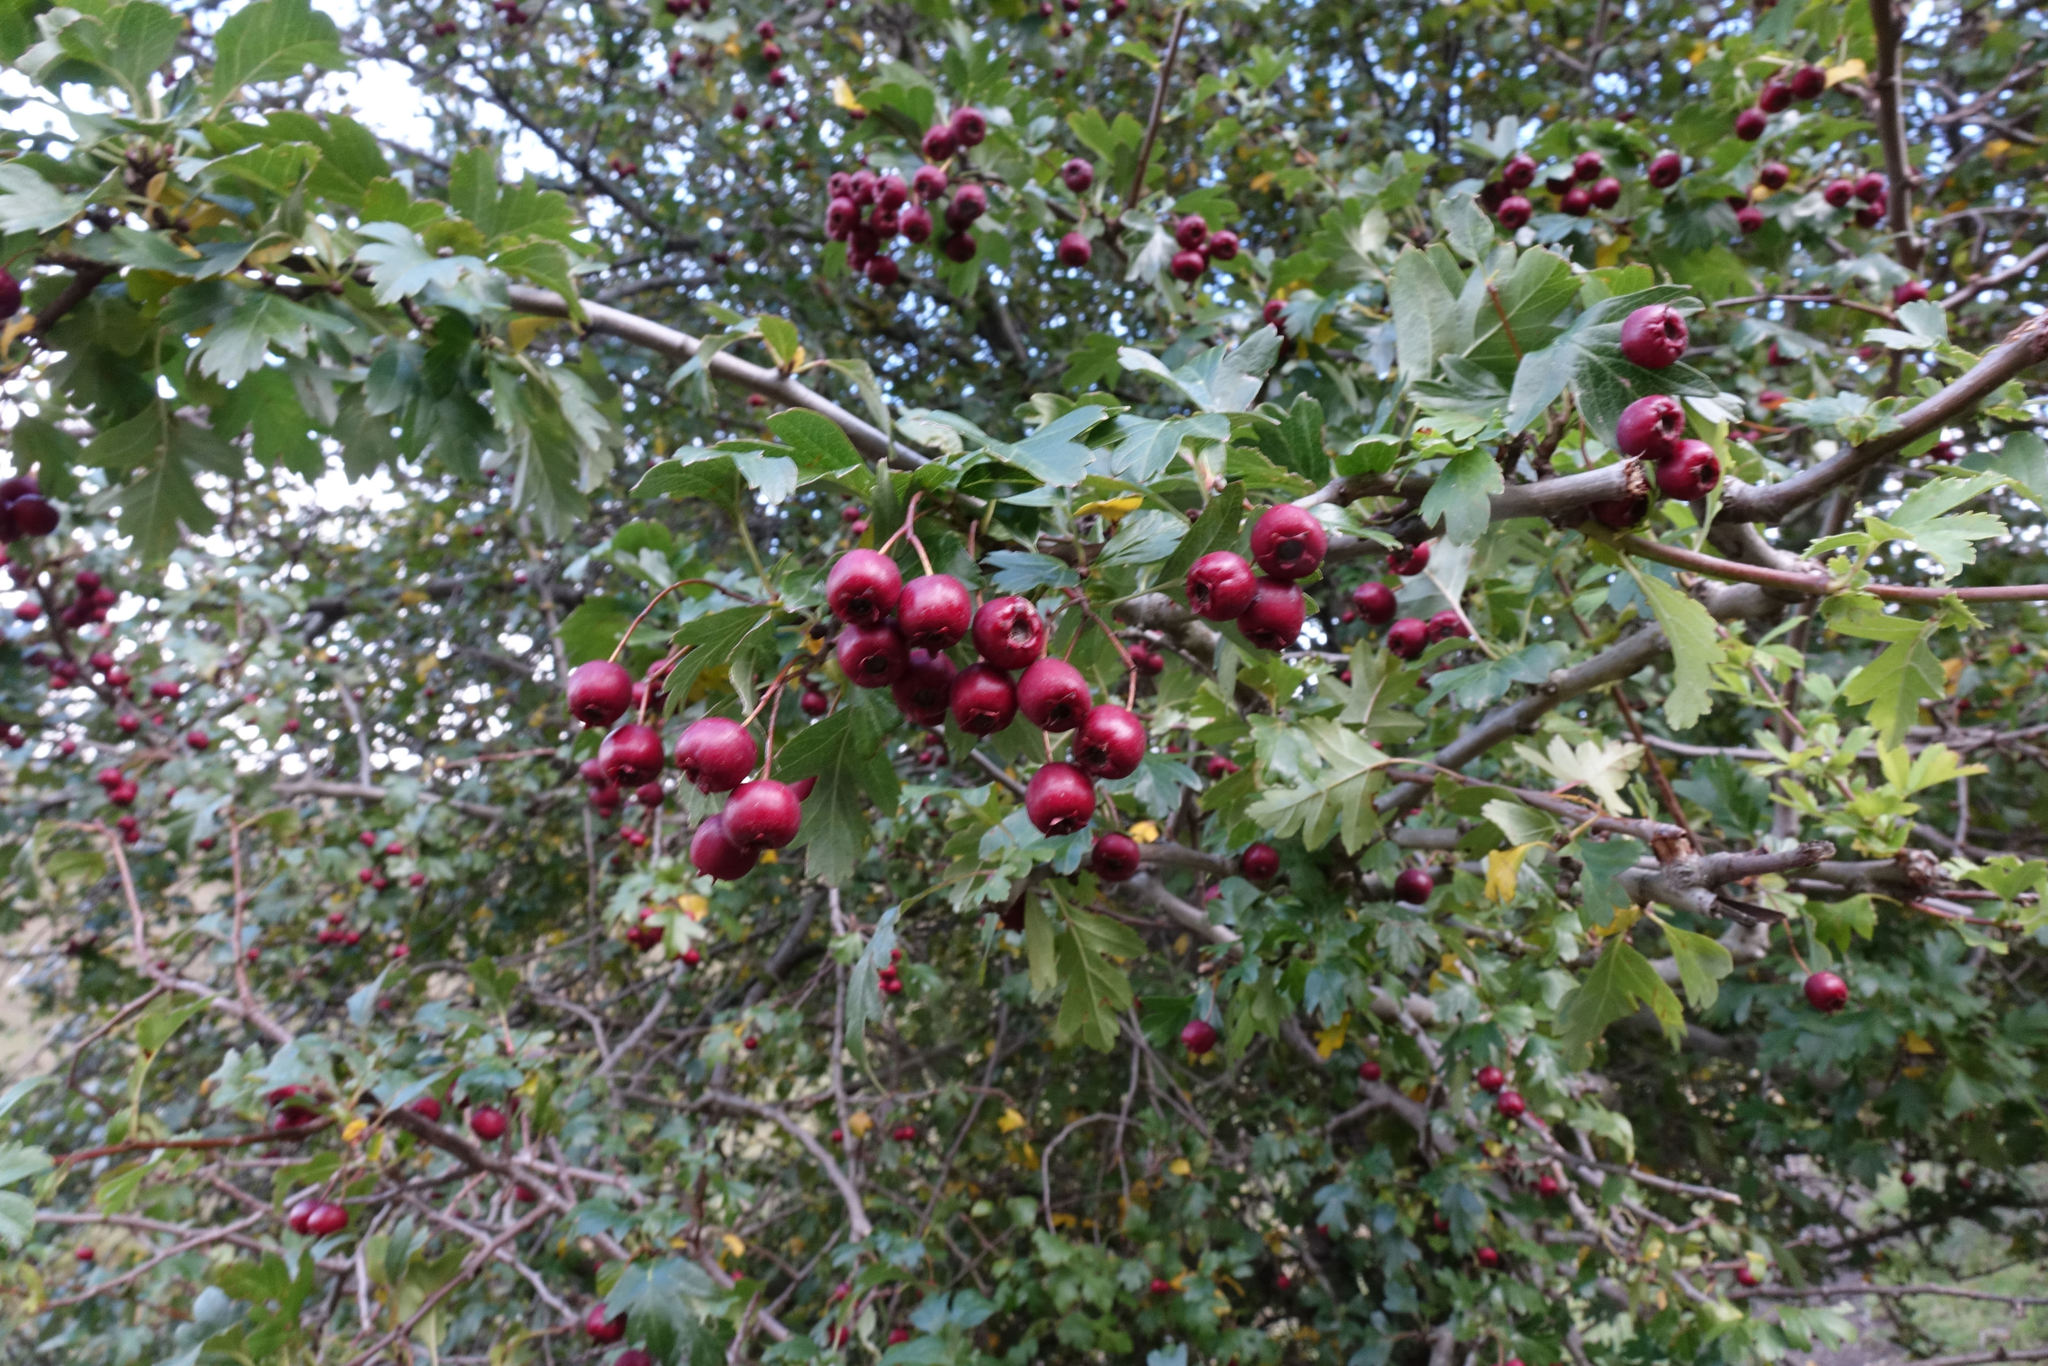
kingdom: Plantae
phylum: Tracheophyta
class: Magnoliopsida
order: Rosales
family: Rosaceae
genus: Crataegus
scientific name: Crataegus monogyna
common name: Hawthorn
